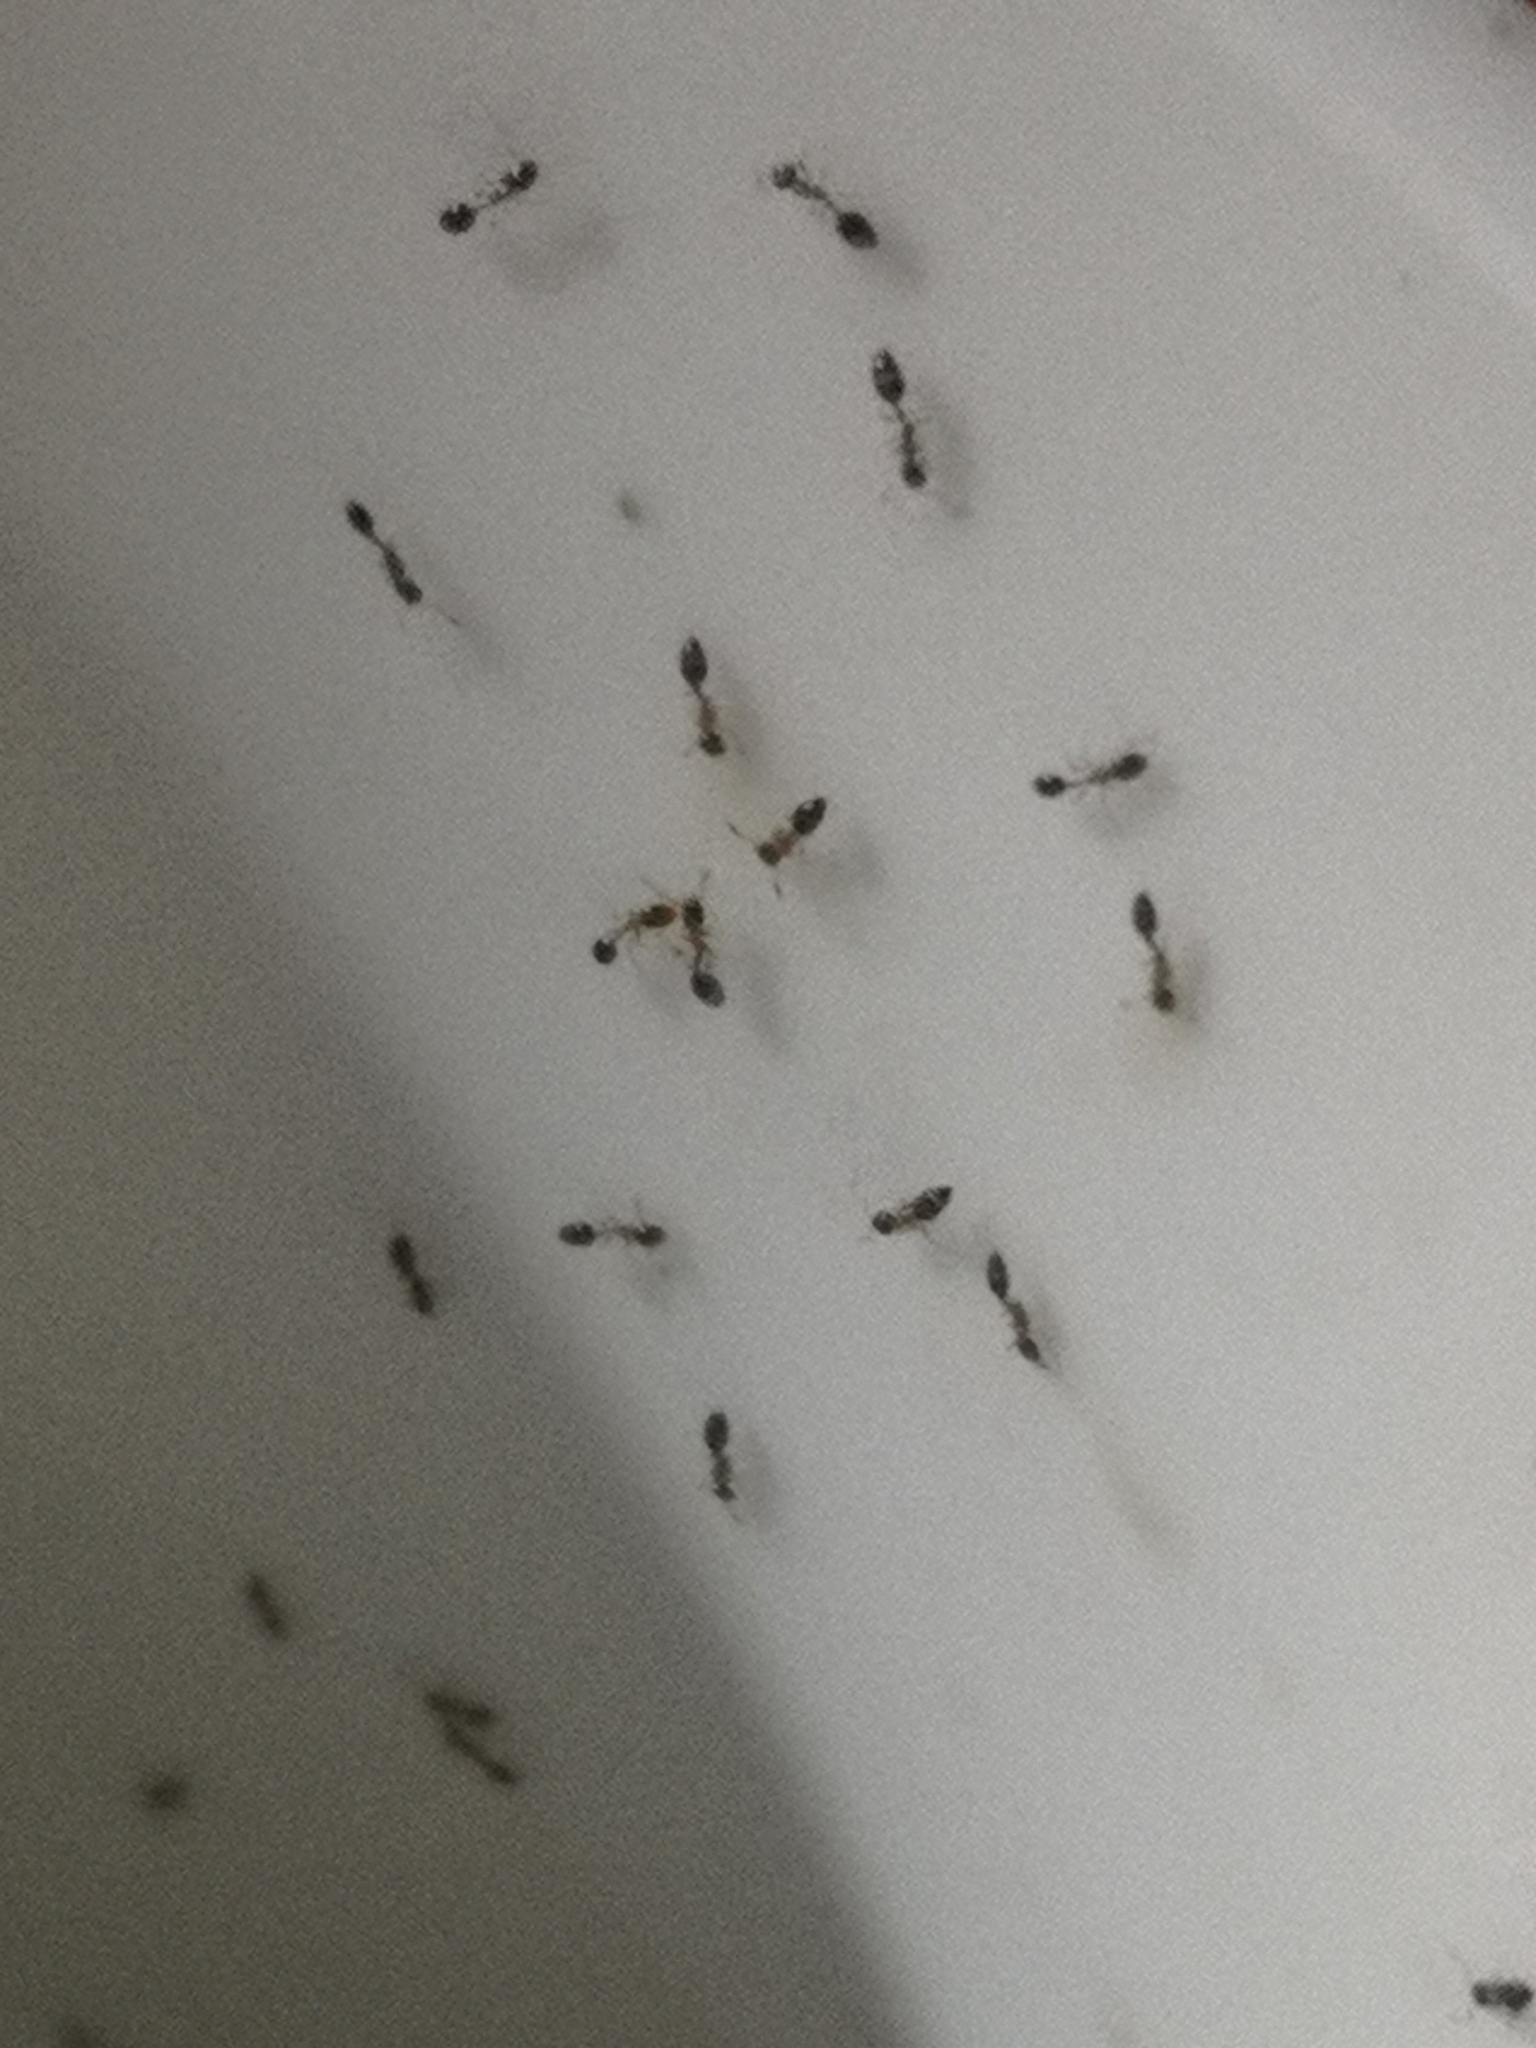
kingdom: Animalia
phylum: Arthropoda
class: Insecta
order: Hymenoptera
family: Formicidae
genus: Monomorium
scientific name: Monomorium floricola
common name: Bicolored trailing ant
